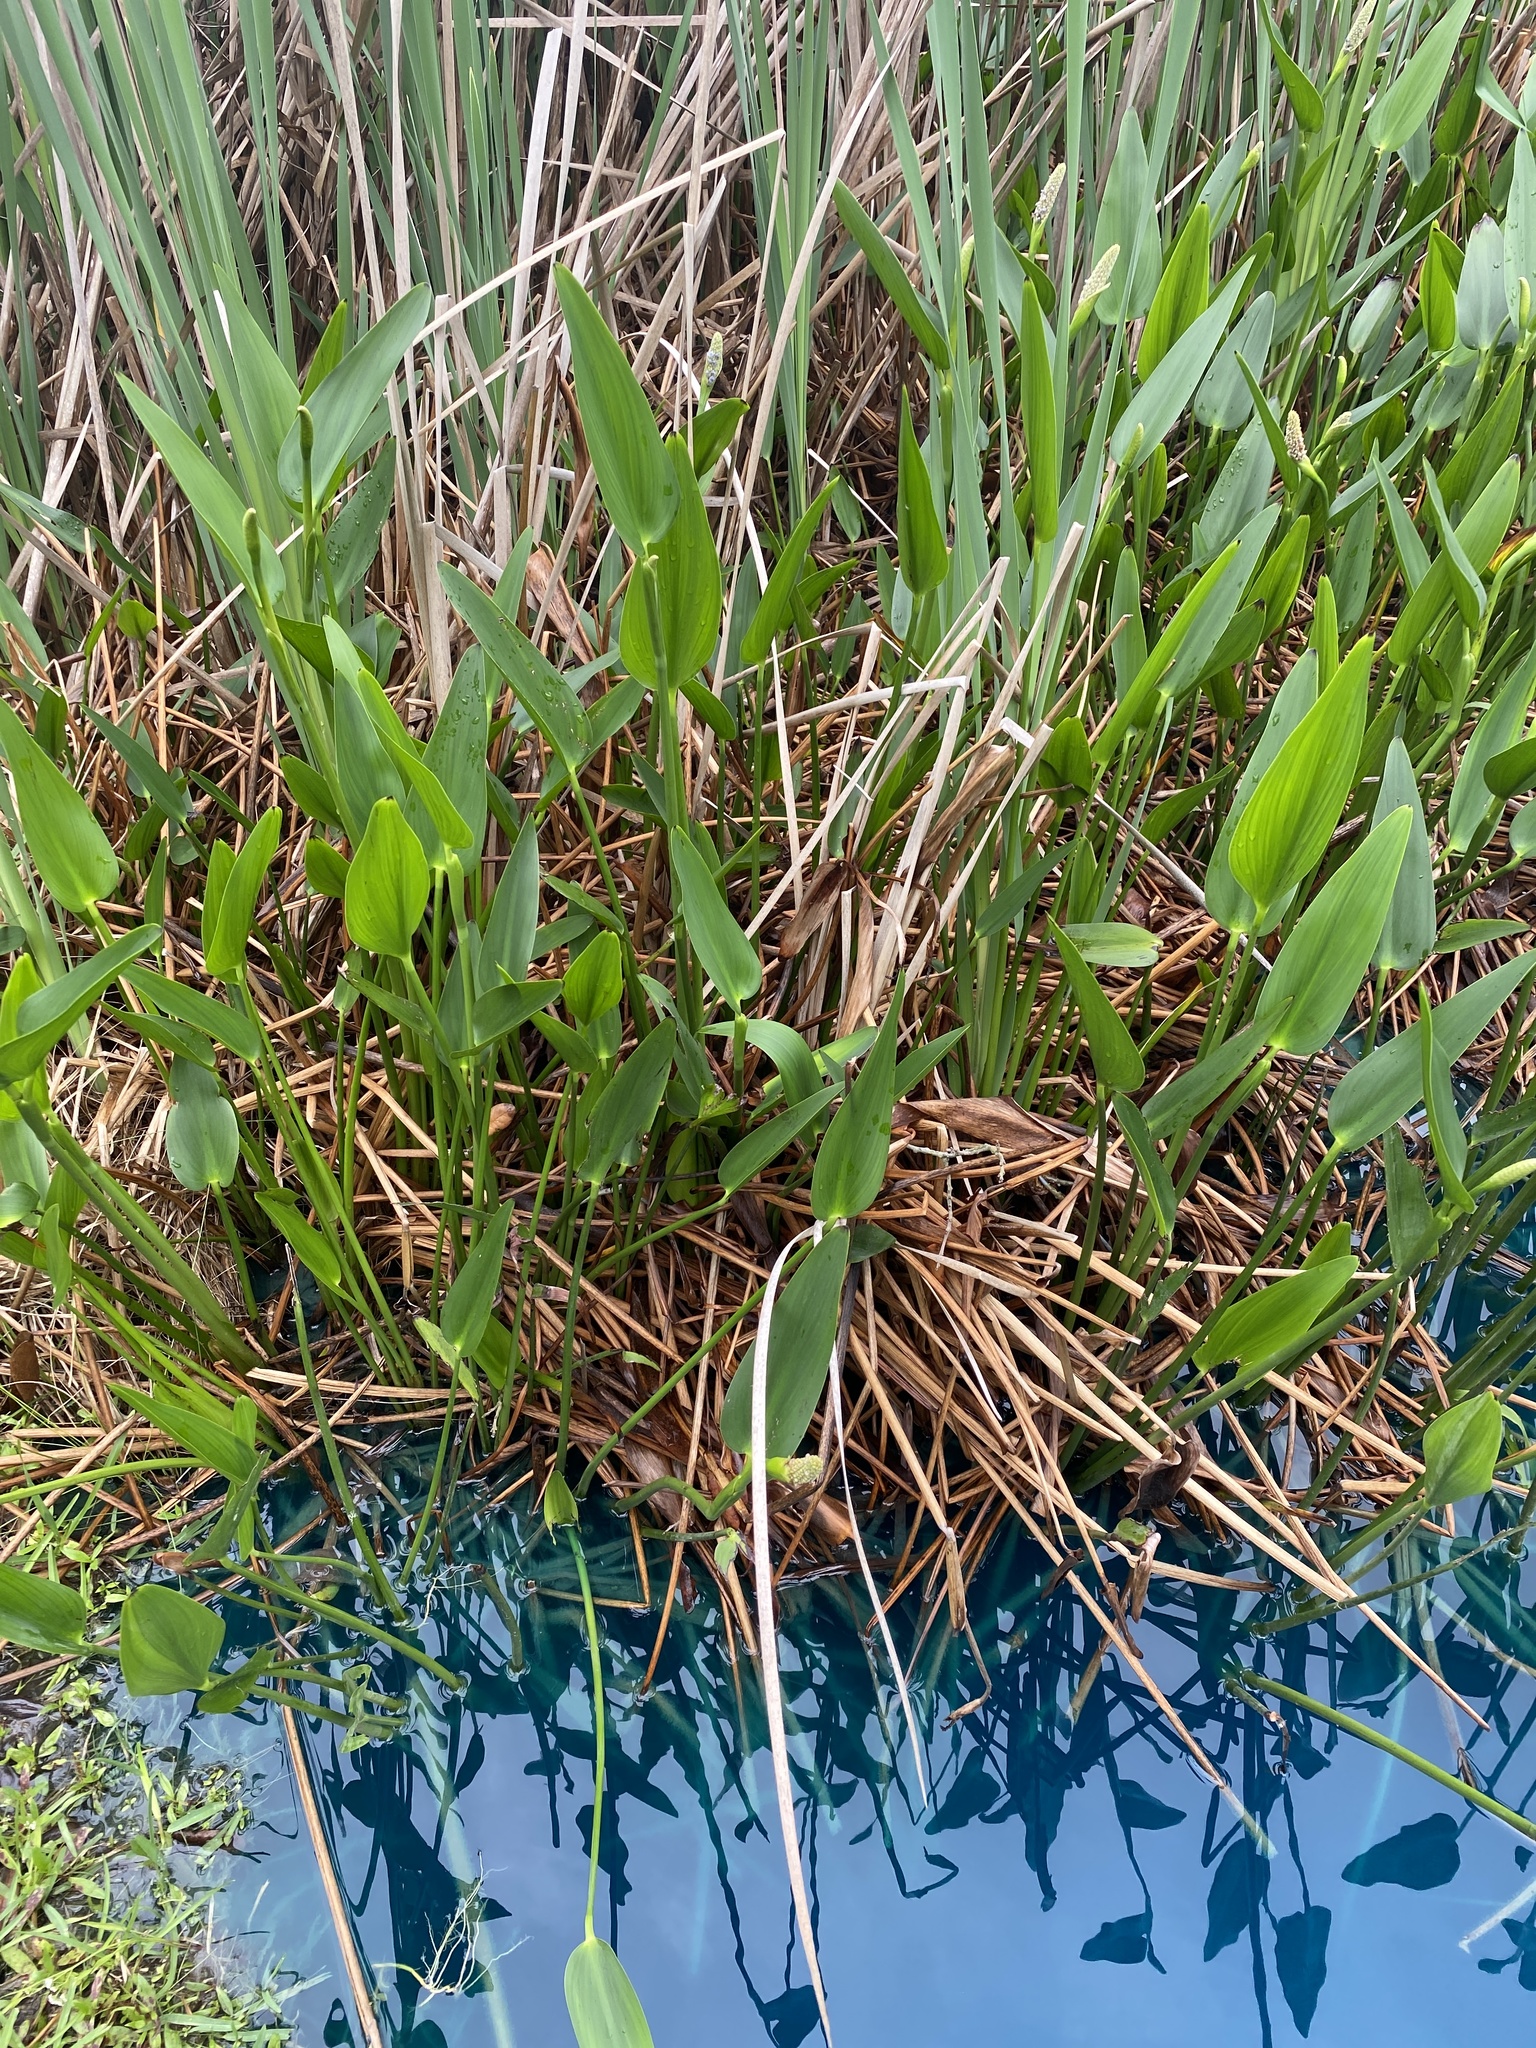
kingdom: Plantae
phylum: Tracheophyta
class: Liliopsida
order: Commelinales
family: Pontederiaceae
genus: Pontederia
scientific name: Pontederia cordata
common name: Pickerelweed
